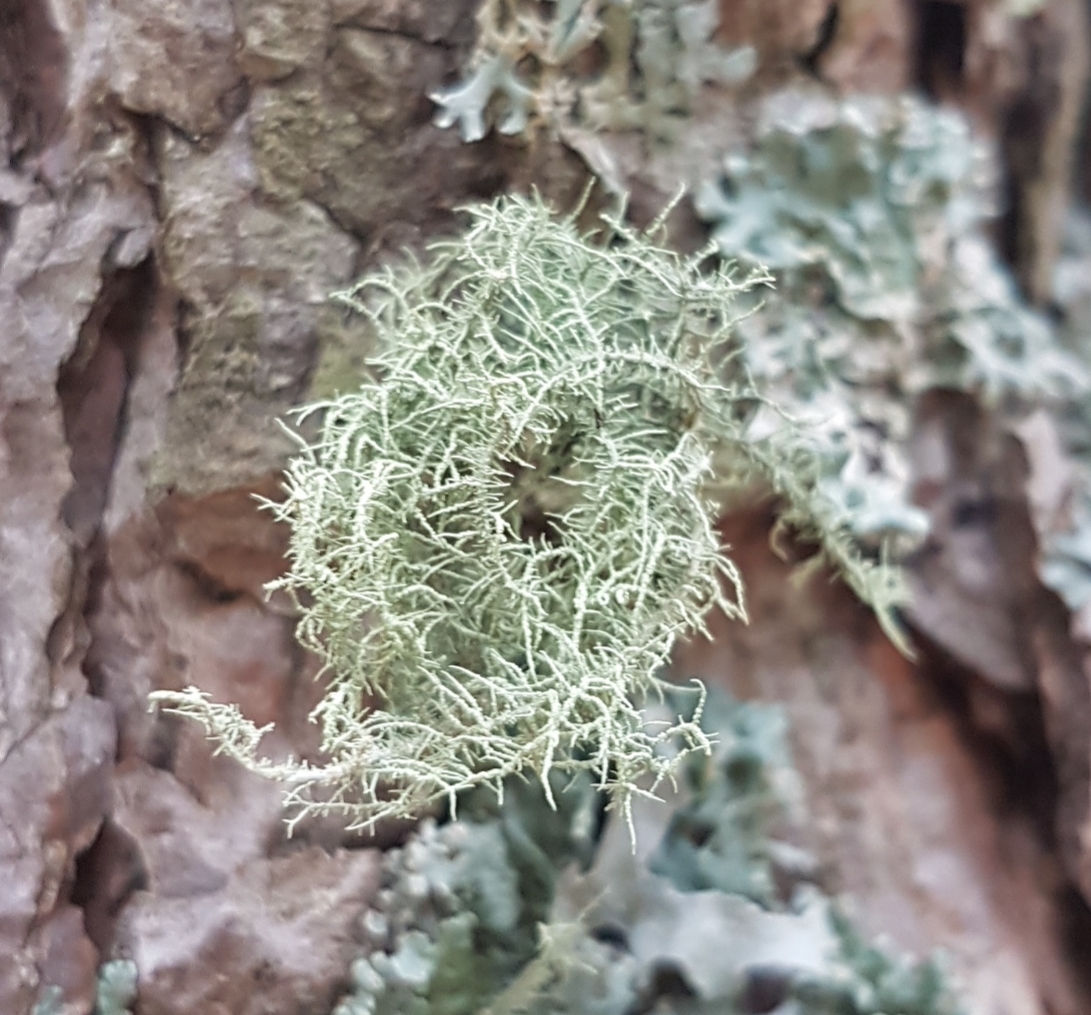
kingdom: Fungi
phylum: Ascomycota
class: Lecanoromycetes
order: Lecanorales
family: Parmeliaceae
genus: Usnea
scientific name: Usnea
